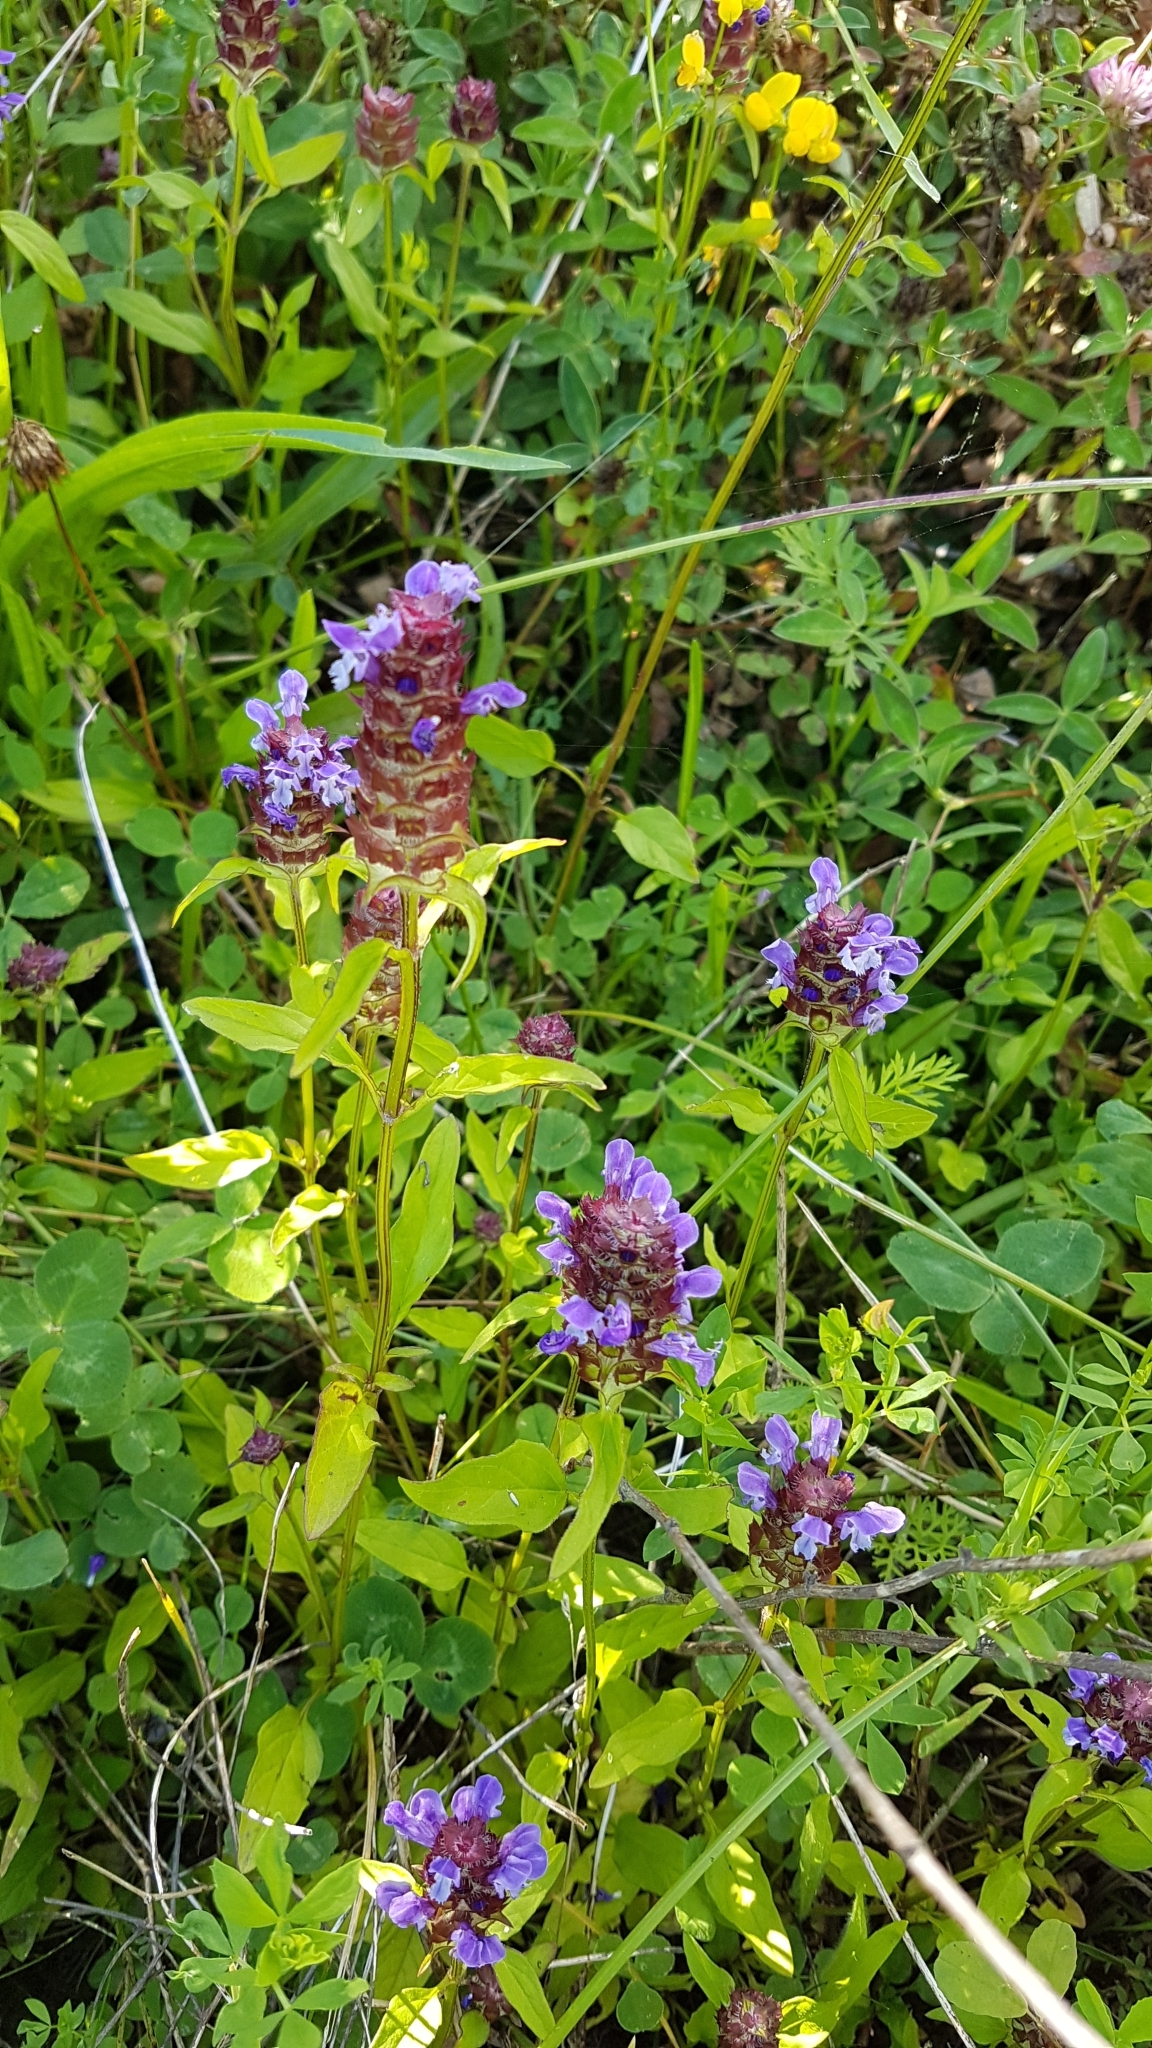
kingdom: Plantae
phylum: Tracheophyta
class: Magnoliopsida
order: Lamiales
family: Lamiaceae
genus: Prunella
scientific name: Prunella vulgaris
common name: Heal-all
